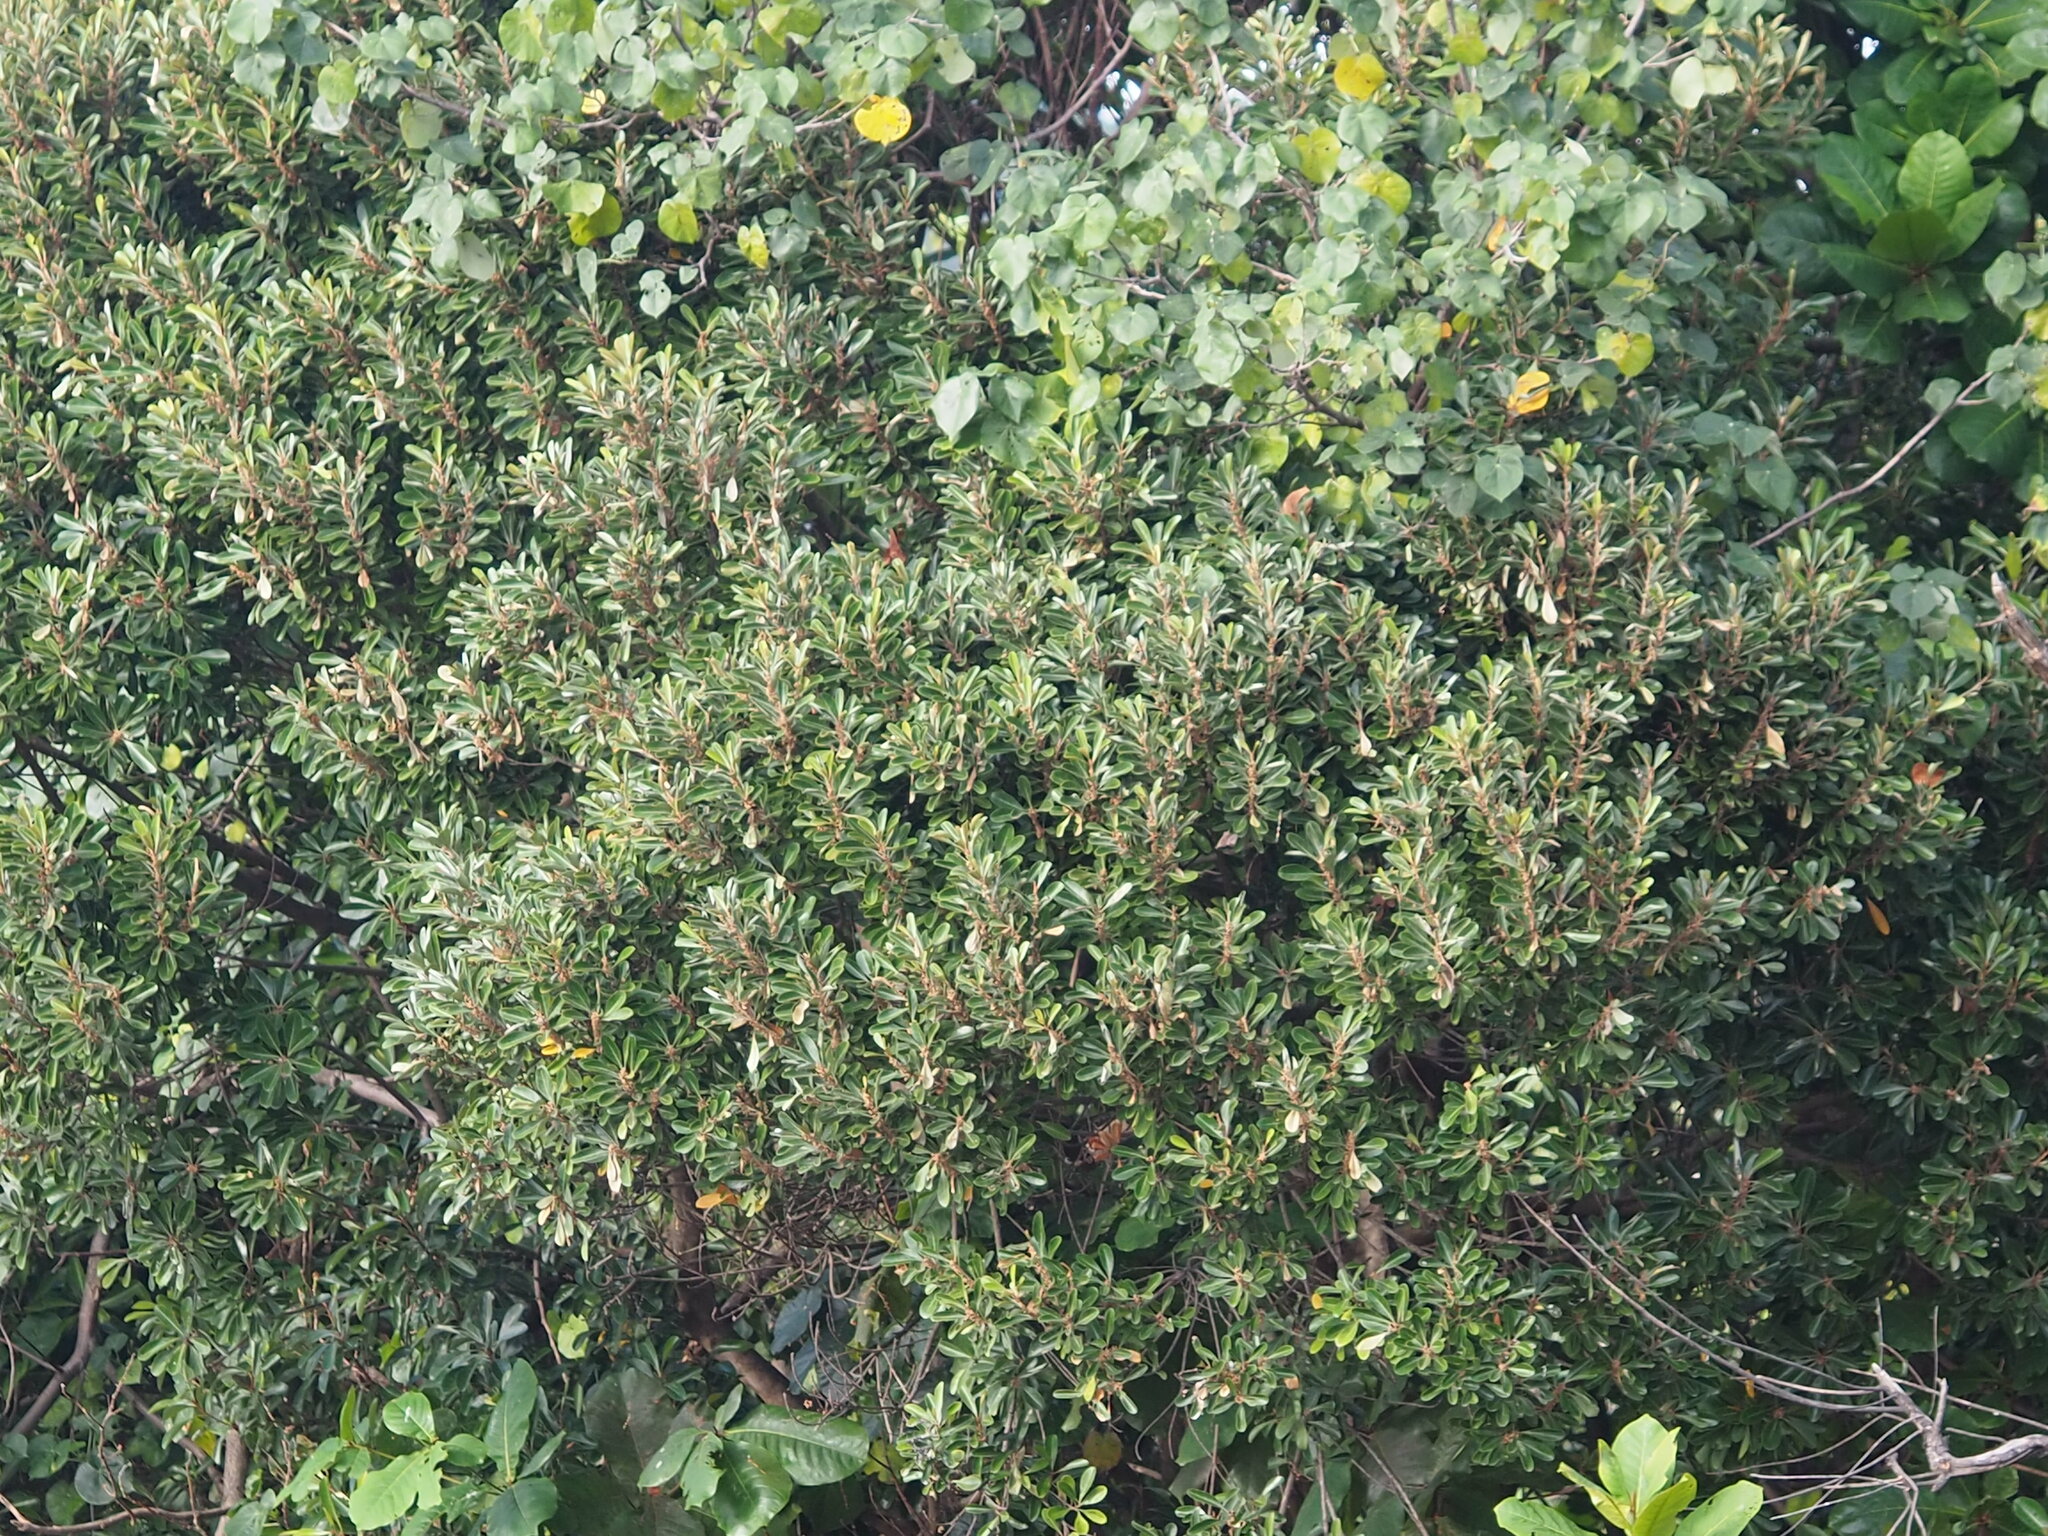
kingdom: Plantae
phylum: Tracheophyta
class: Magnoliopsida
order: Ericales
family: Sapotaceae
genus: Planchonella
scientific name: Planchonella obovata
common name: Black-ash
